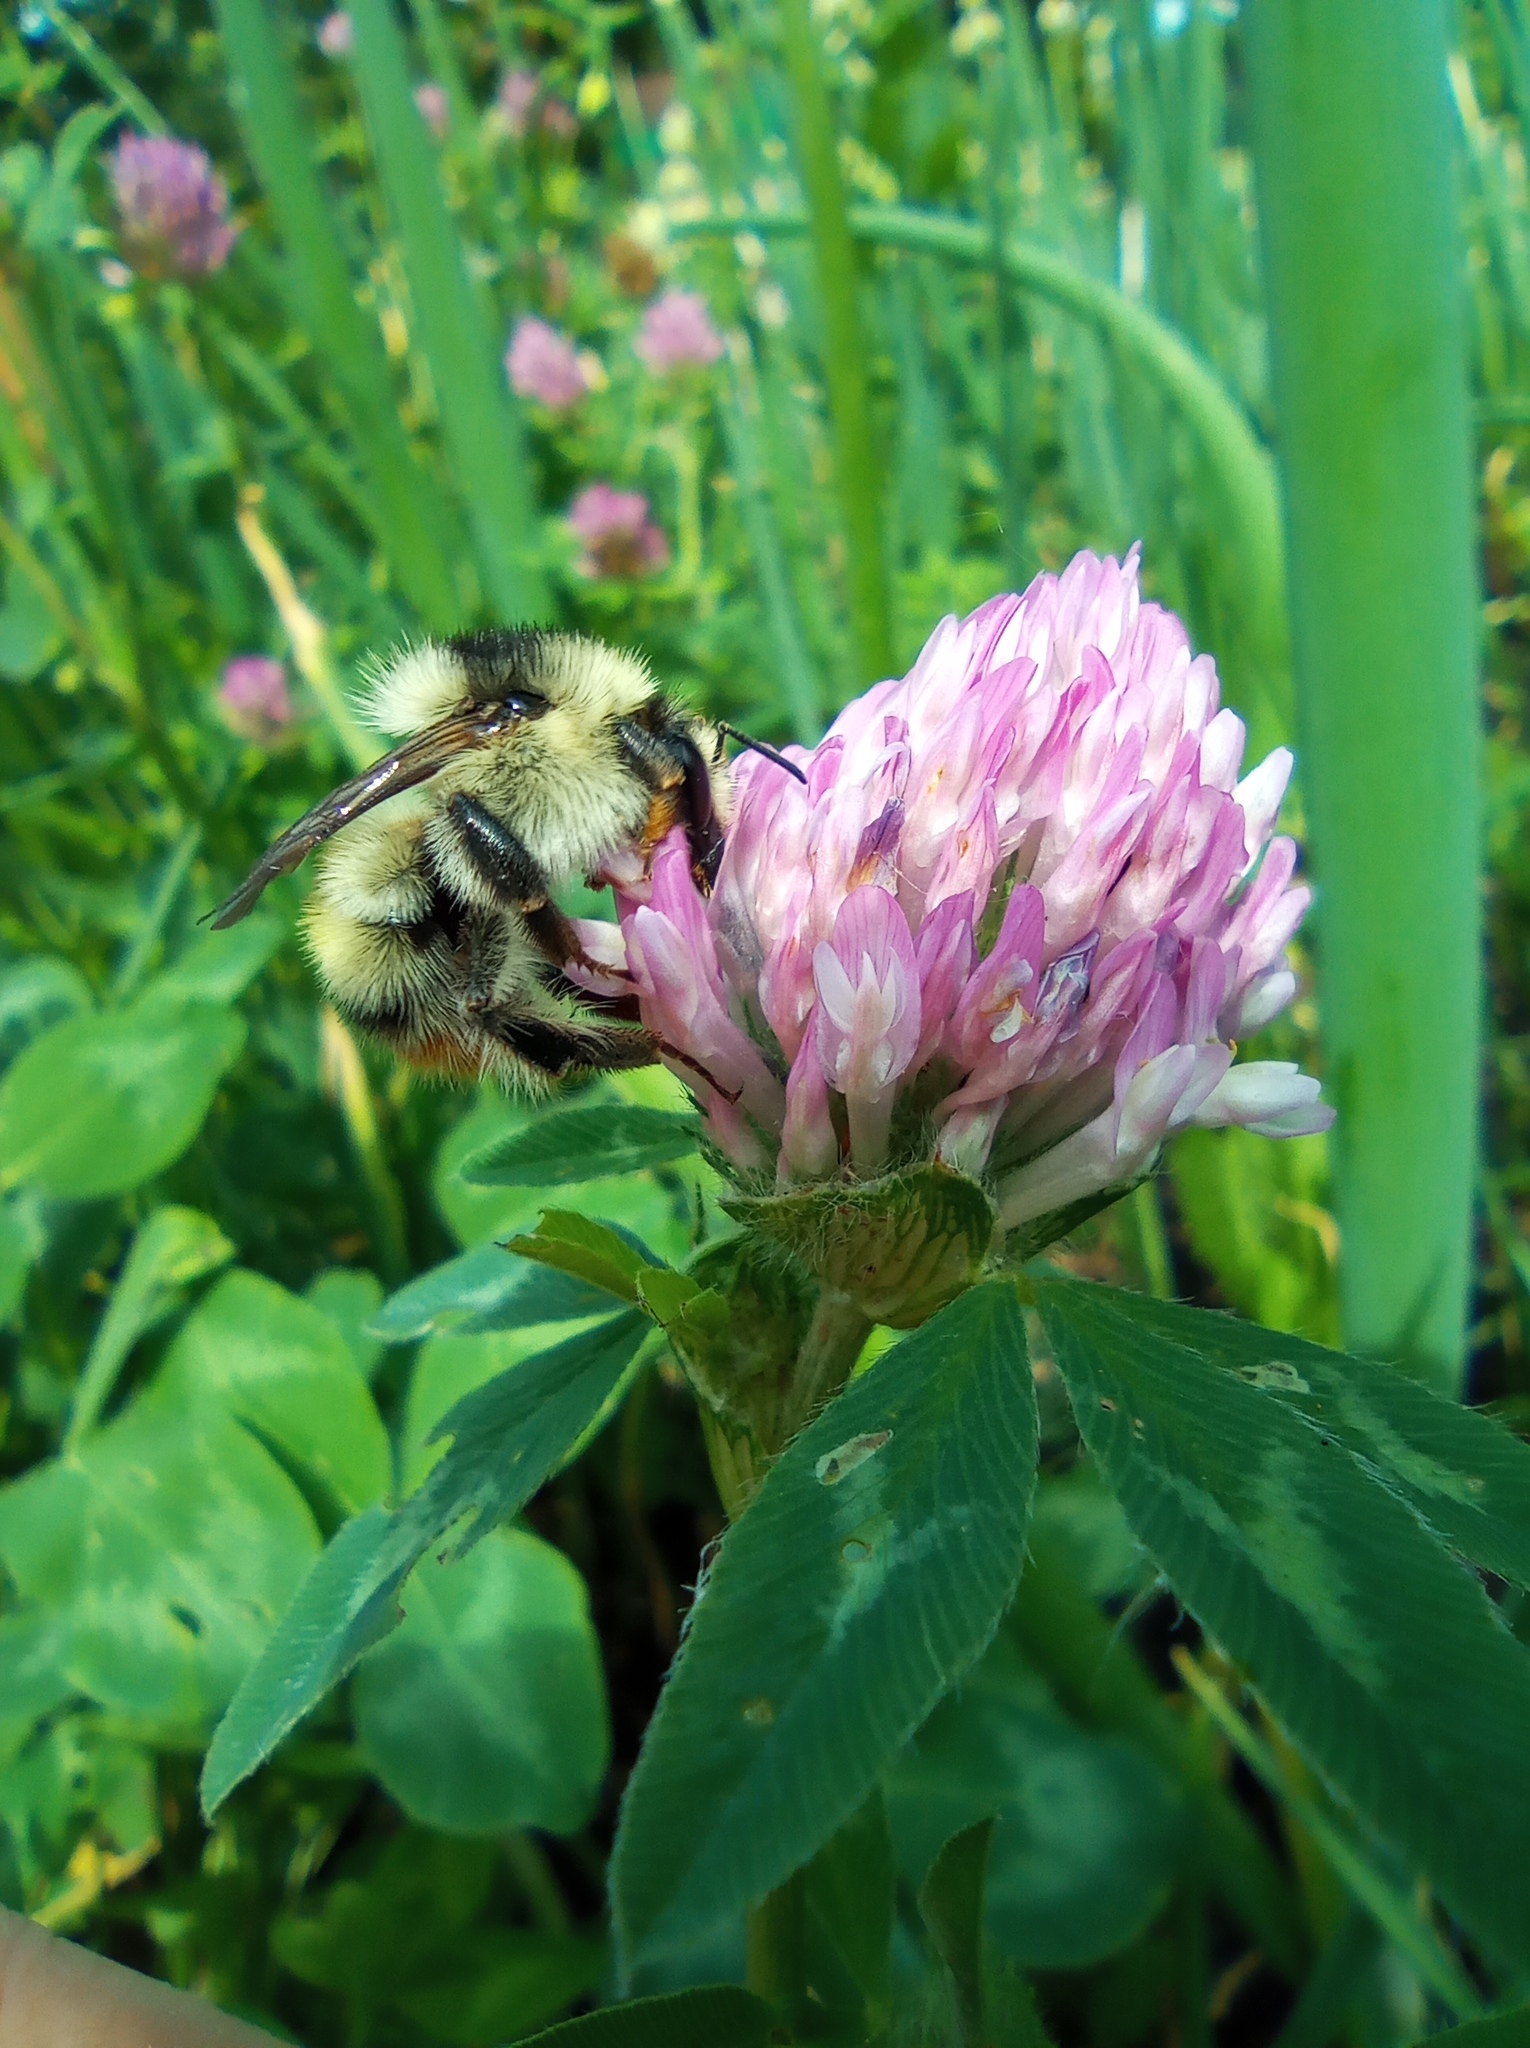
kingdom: Animalia
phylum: Arthropoda
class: Insecta
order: Hymenoptera
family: Apidae
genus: Bombus
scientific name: Bombus sylvarum
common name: Shrill carder bee
